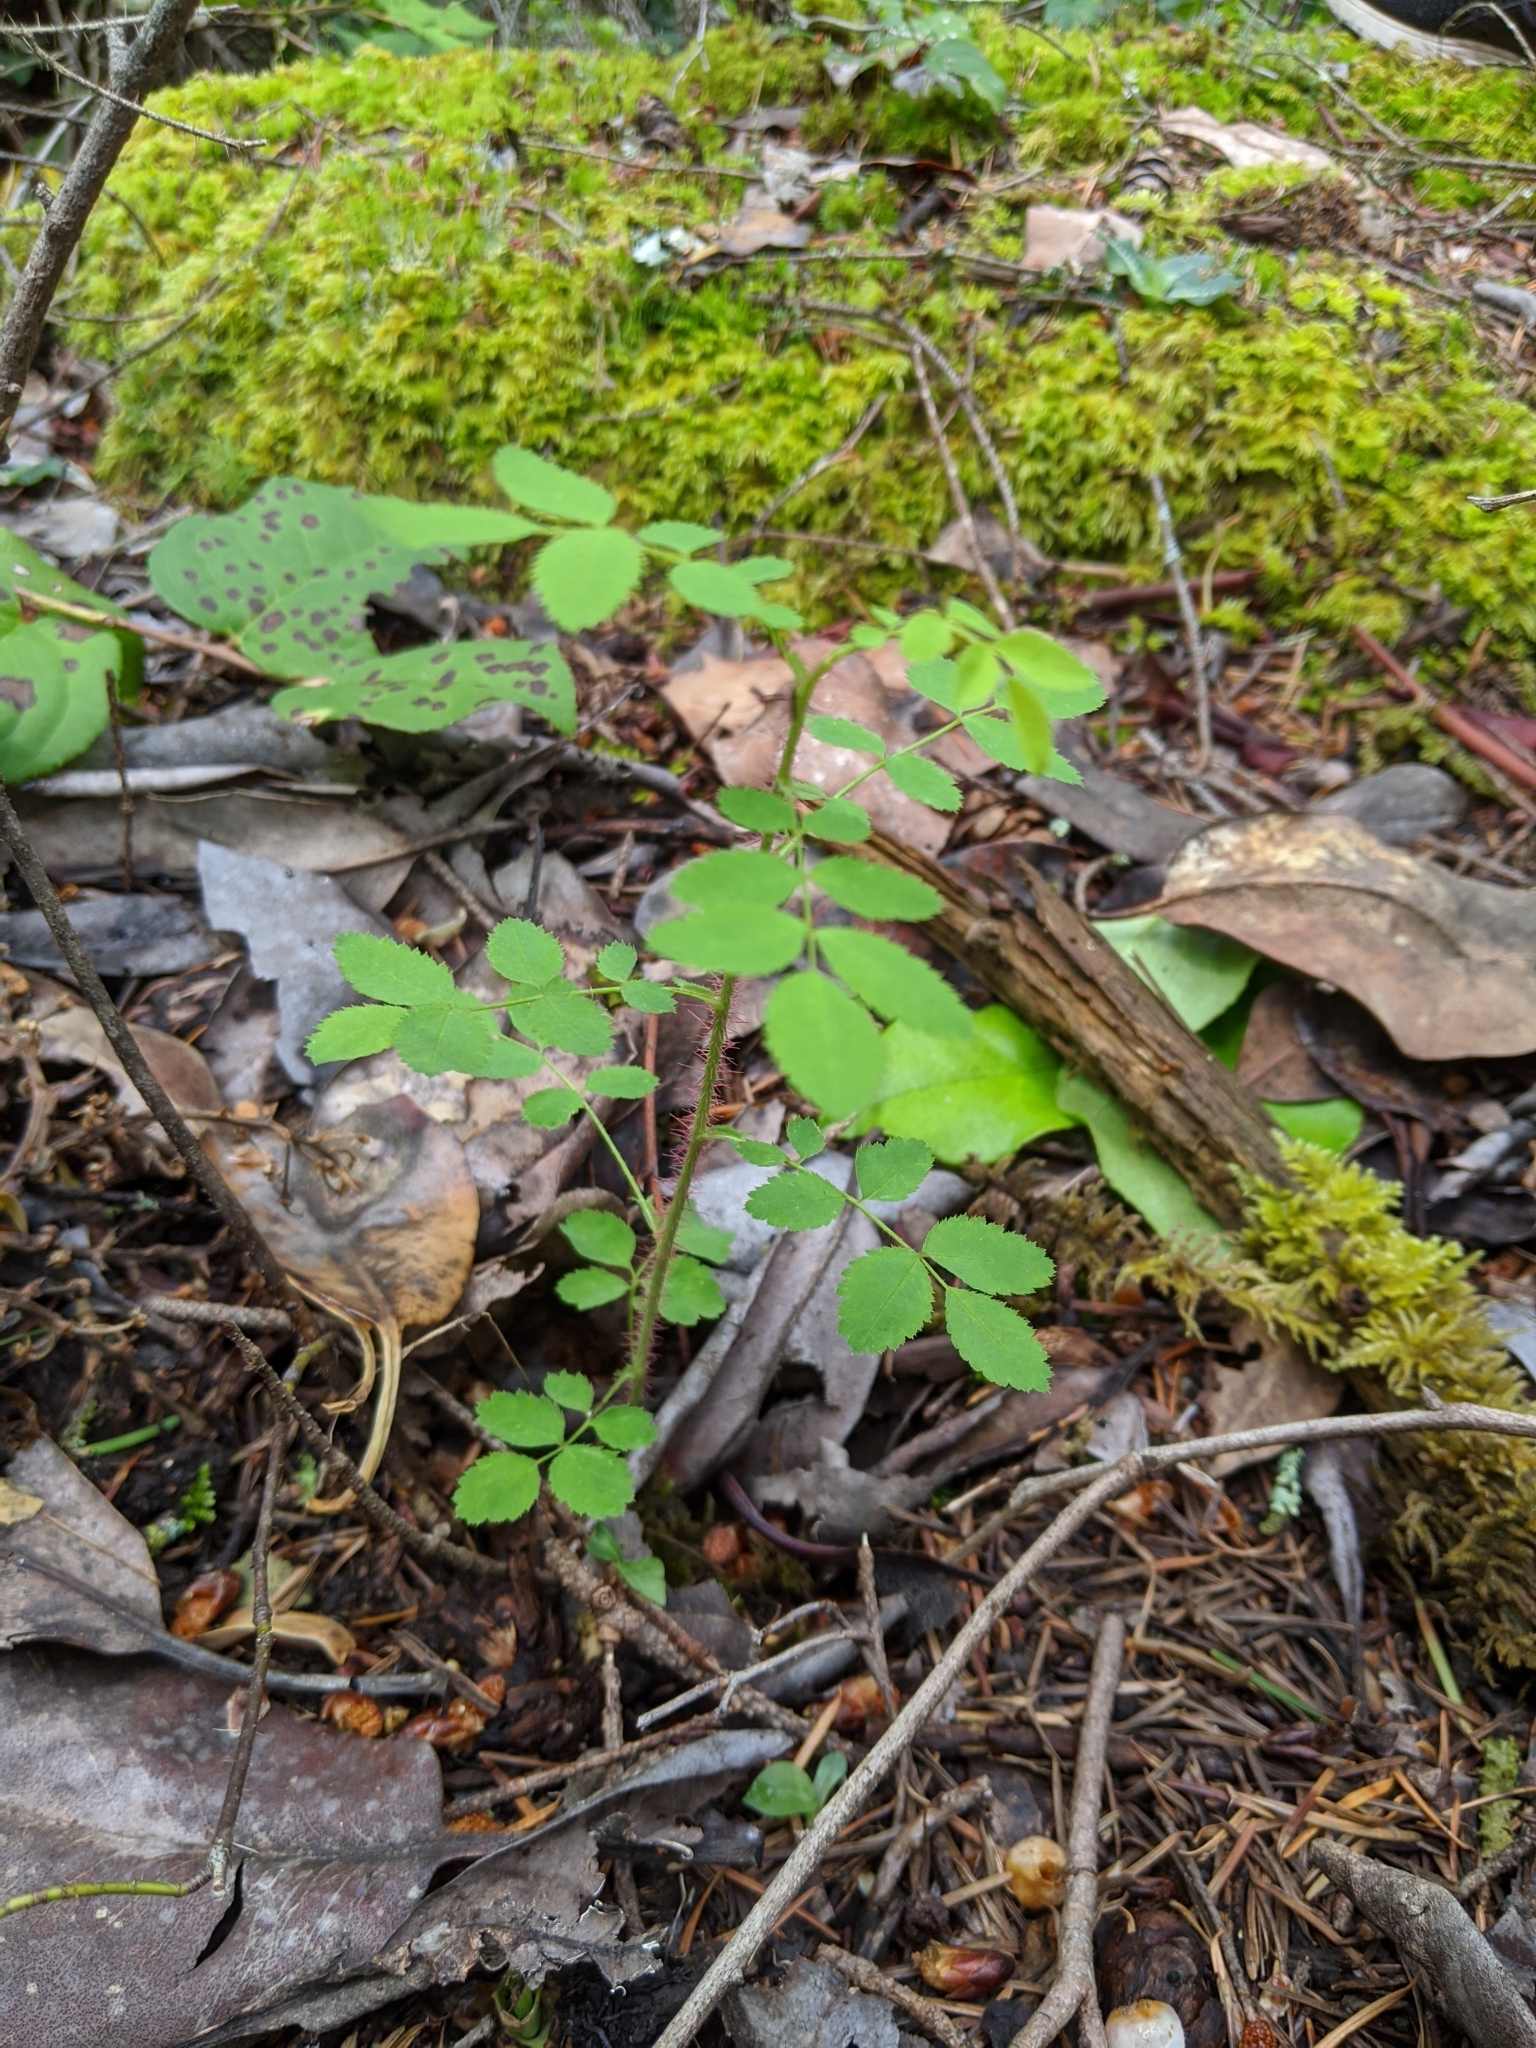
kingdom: Plantae
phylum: Tracheophyta
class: Magnoliopsida
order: Rosales
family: Rosaceae
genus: Rosa
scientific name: Rosa gymnocarpa
